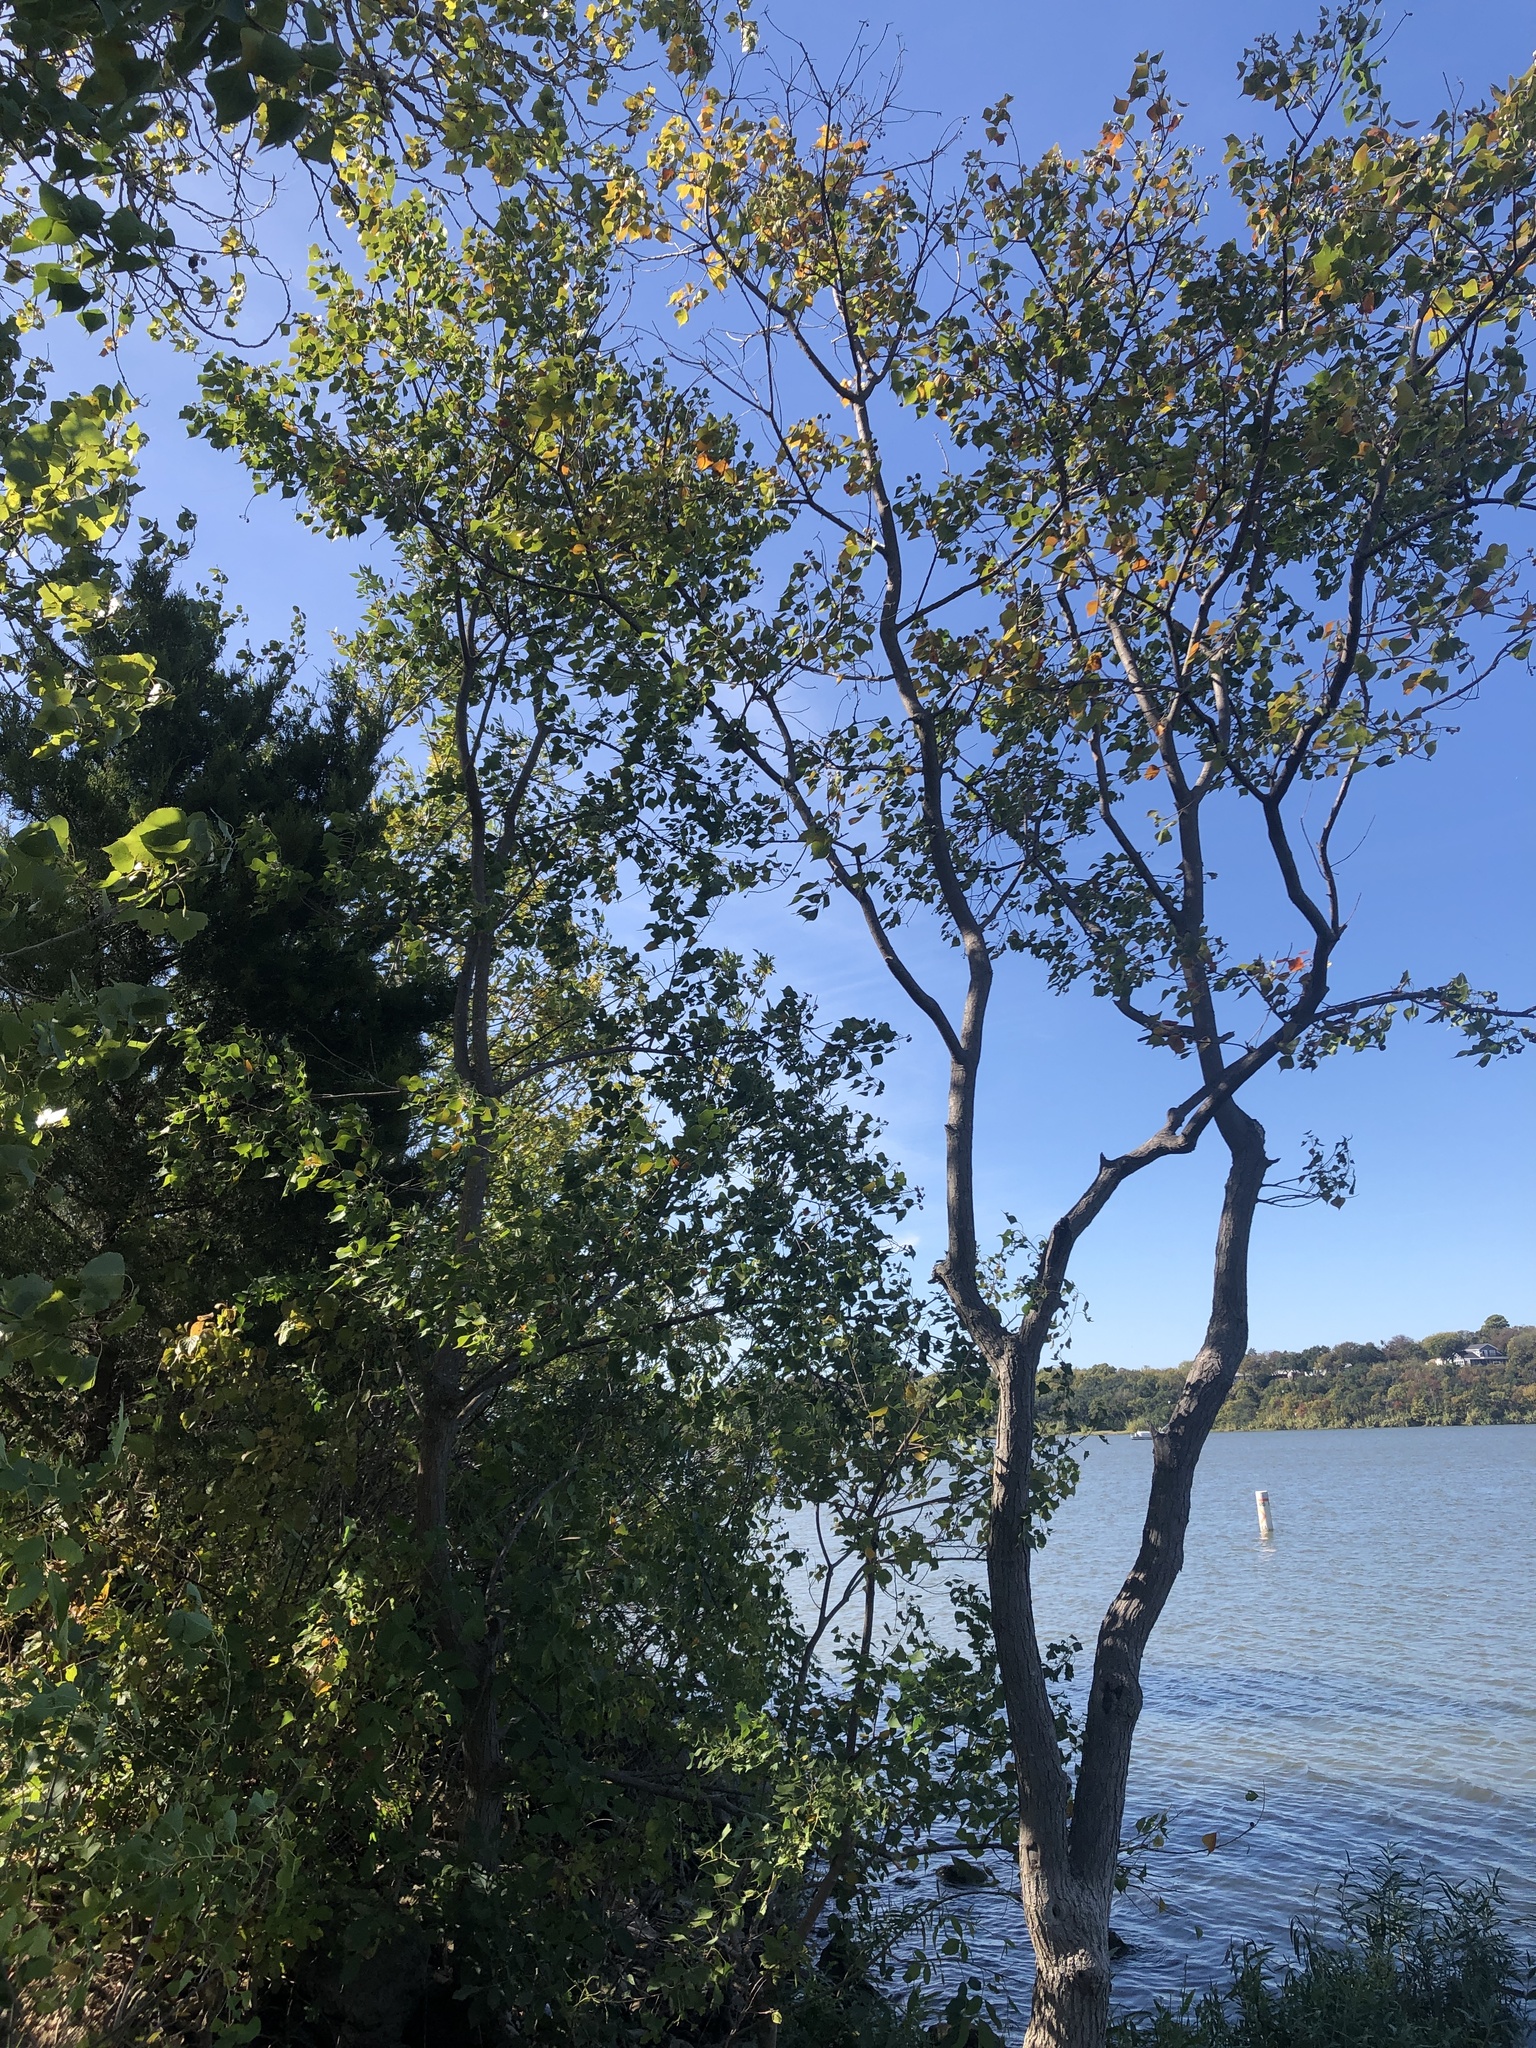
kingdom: Plantae
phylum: Tracheophyta
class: Magnoliopsida
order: Malpighiales
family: Euphorbiaceae
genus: Triadica
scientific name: Triadica sebifera
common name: Chinese tallow
